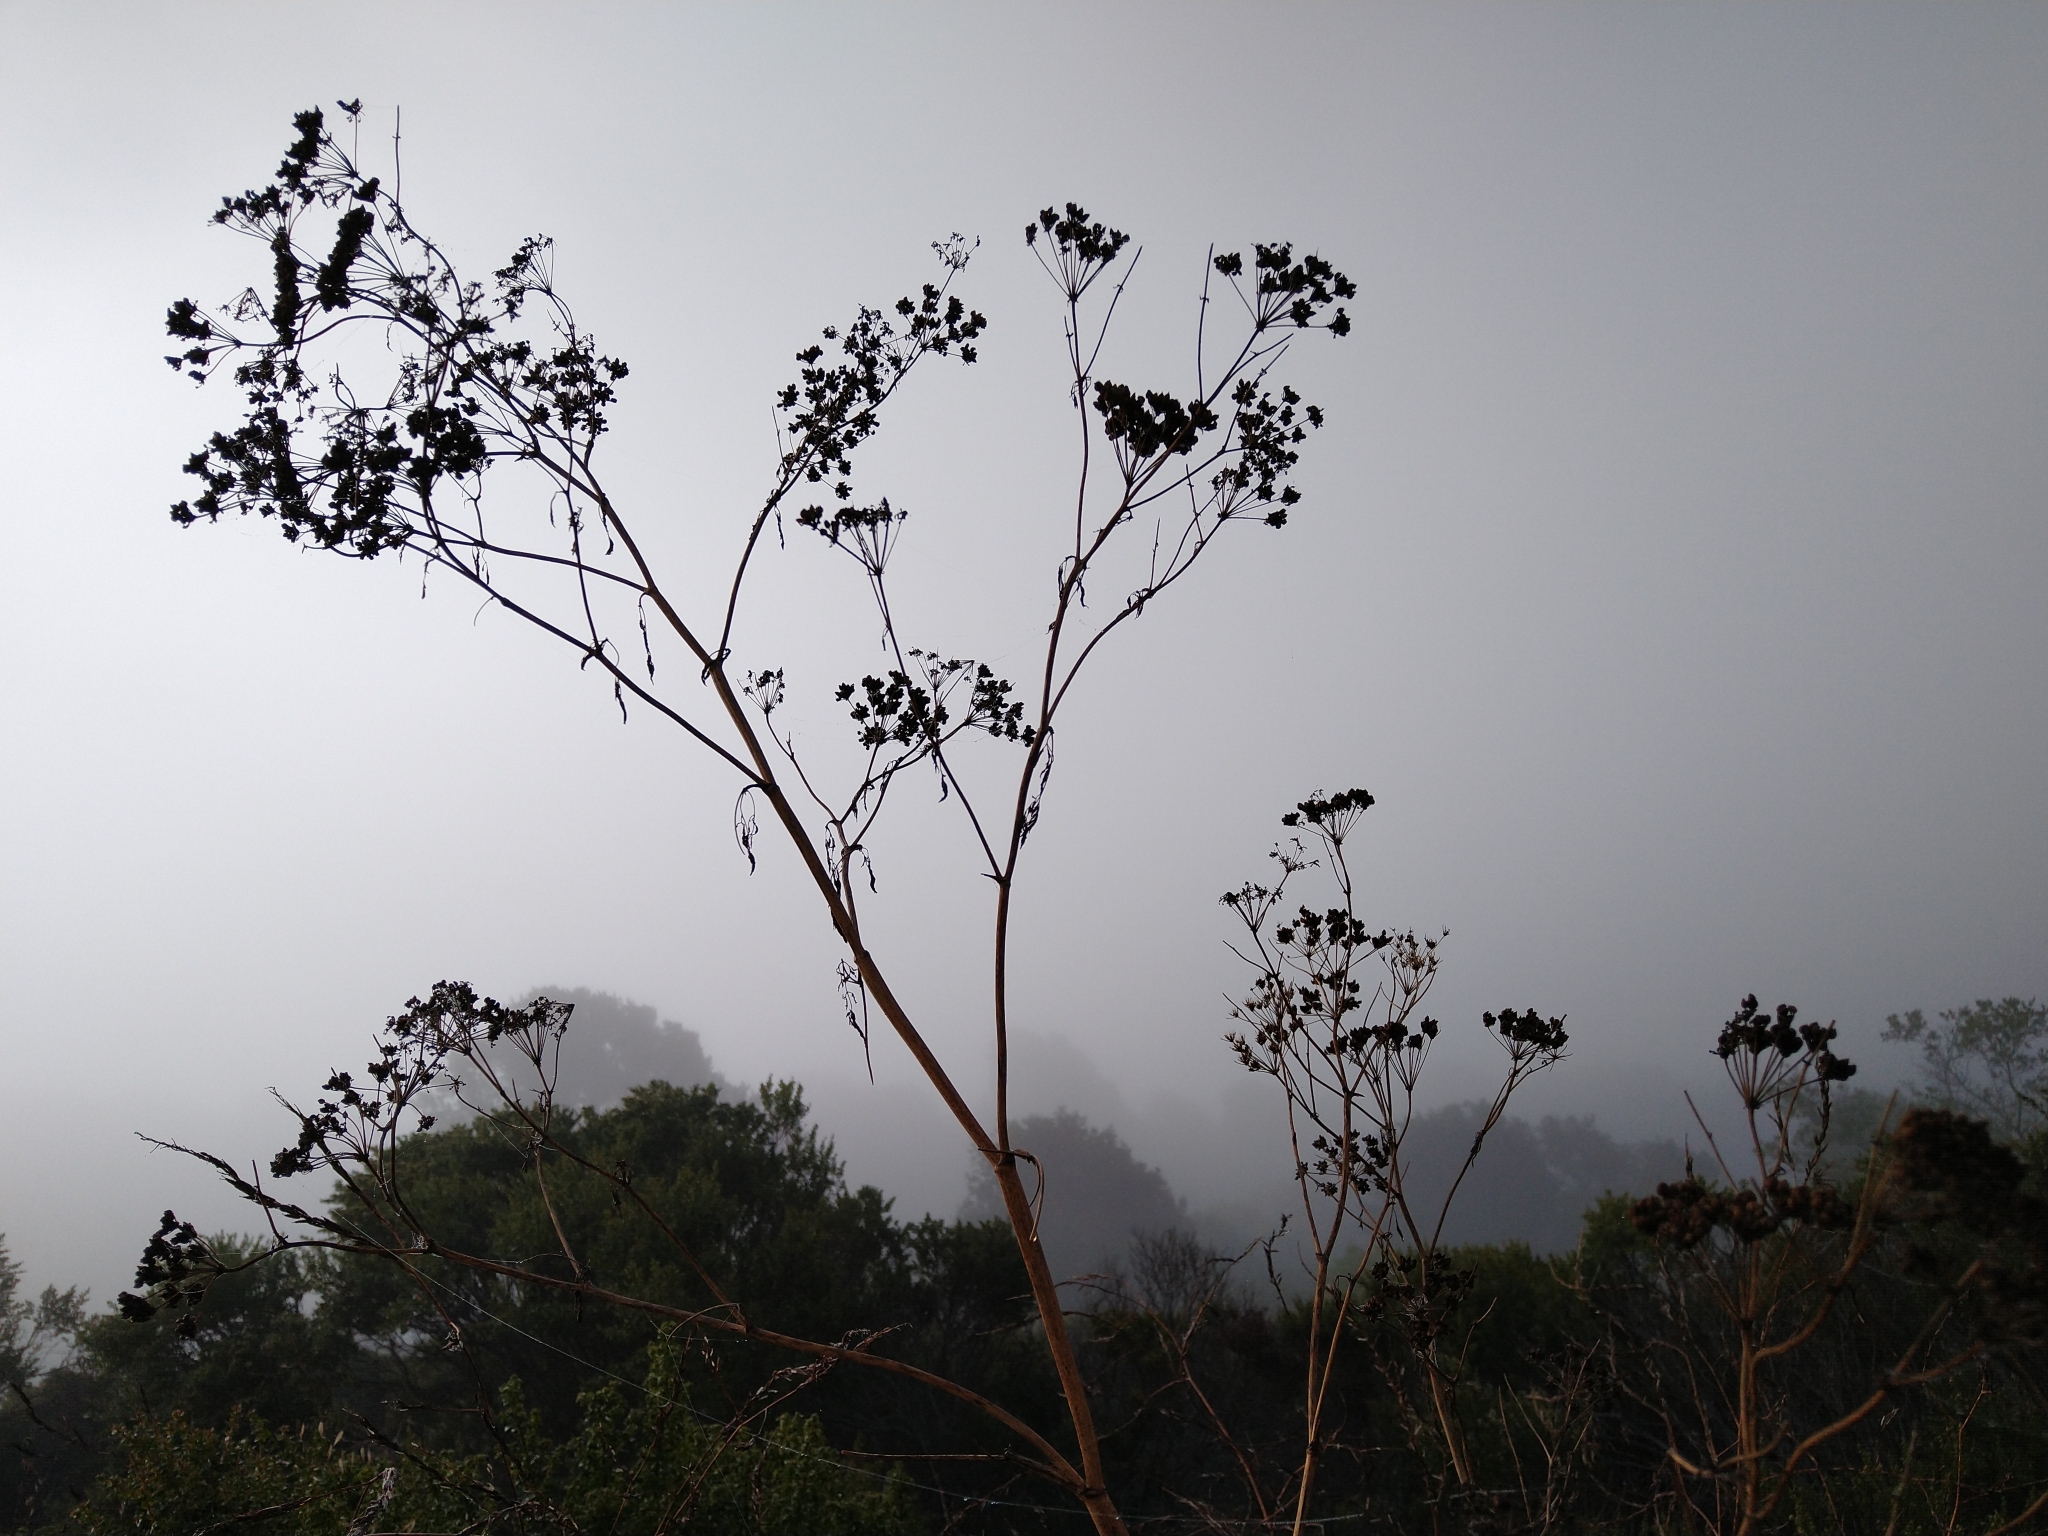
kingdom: Plantae
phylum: Tracheophyta
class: Magnoliopsida
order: Apiales
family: Apiaceae
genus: Conium
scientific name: Conium maculatum
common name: Hemlock
